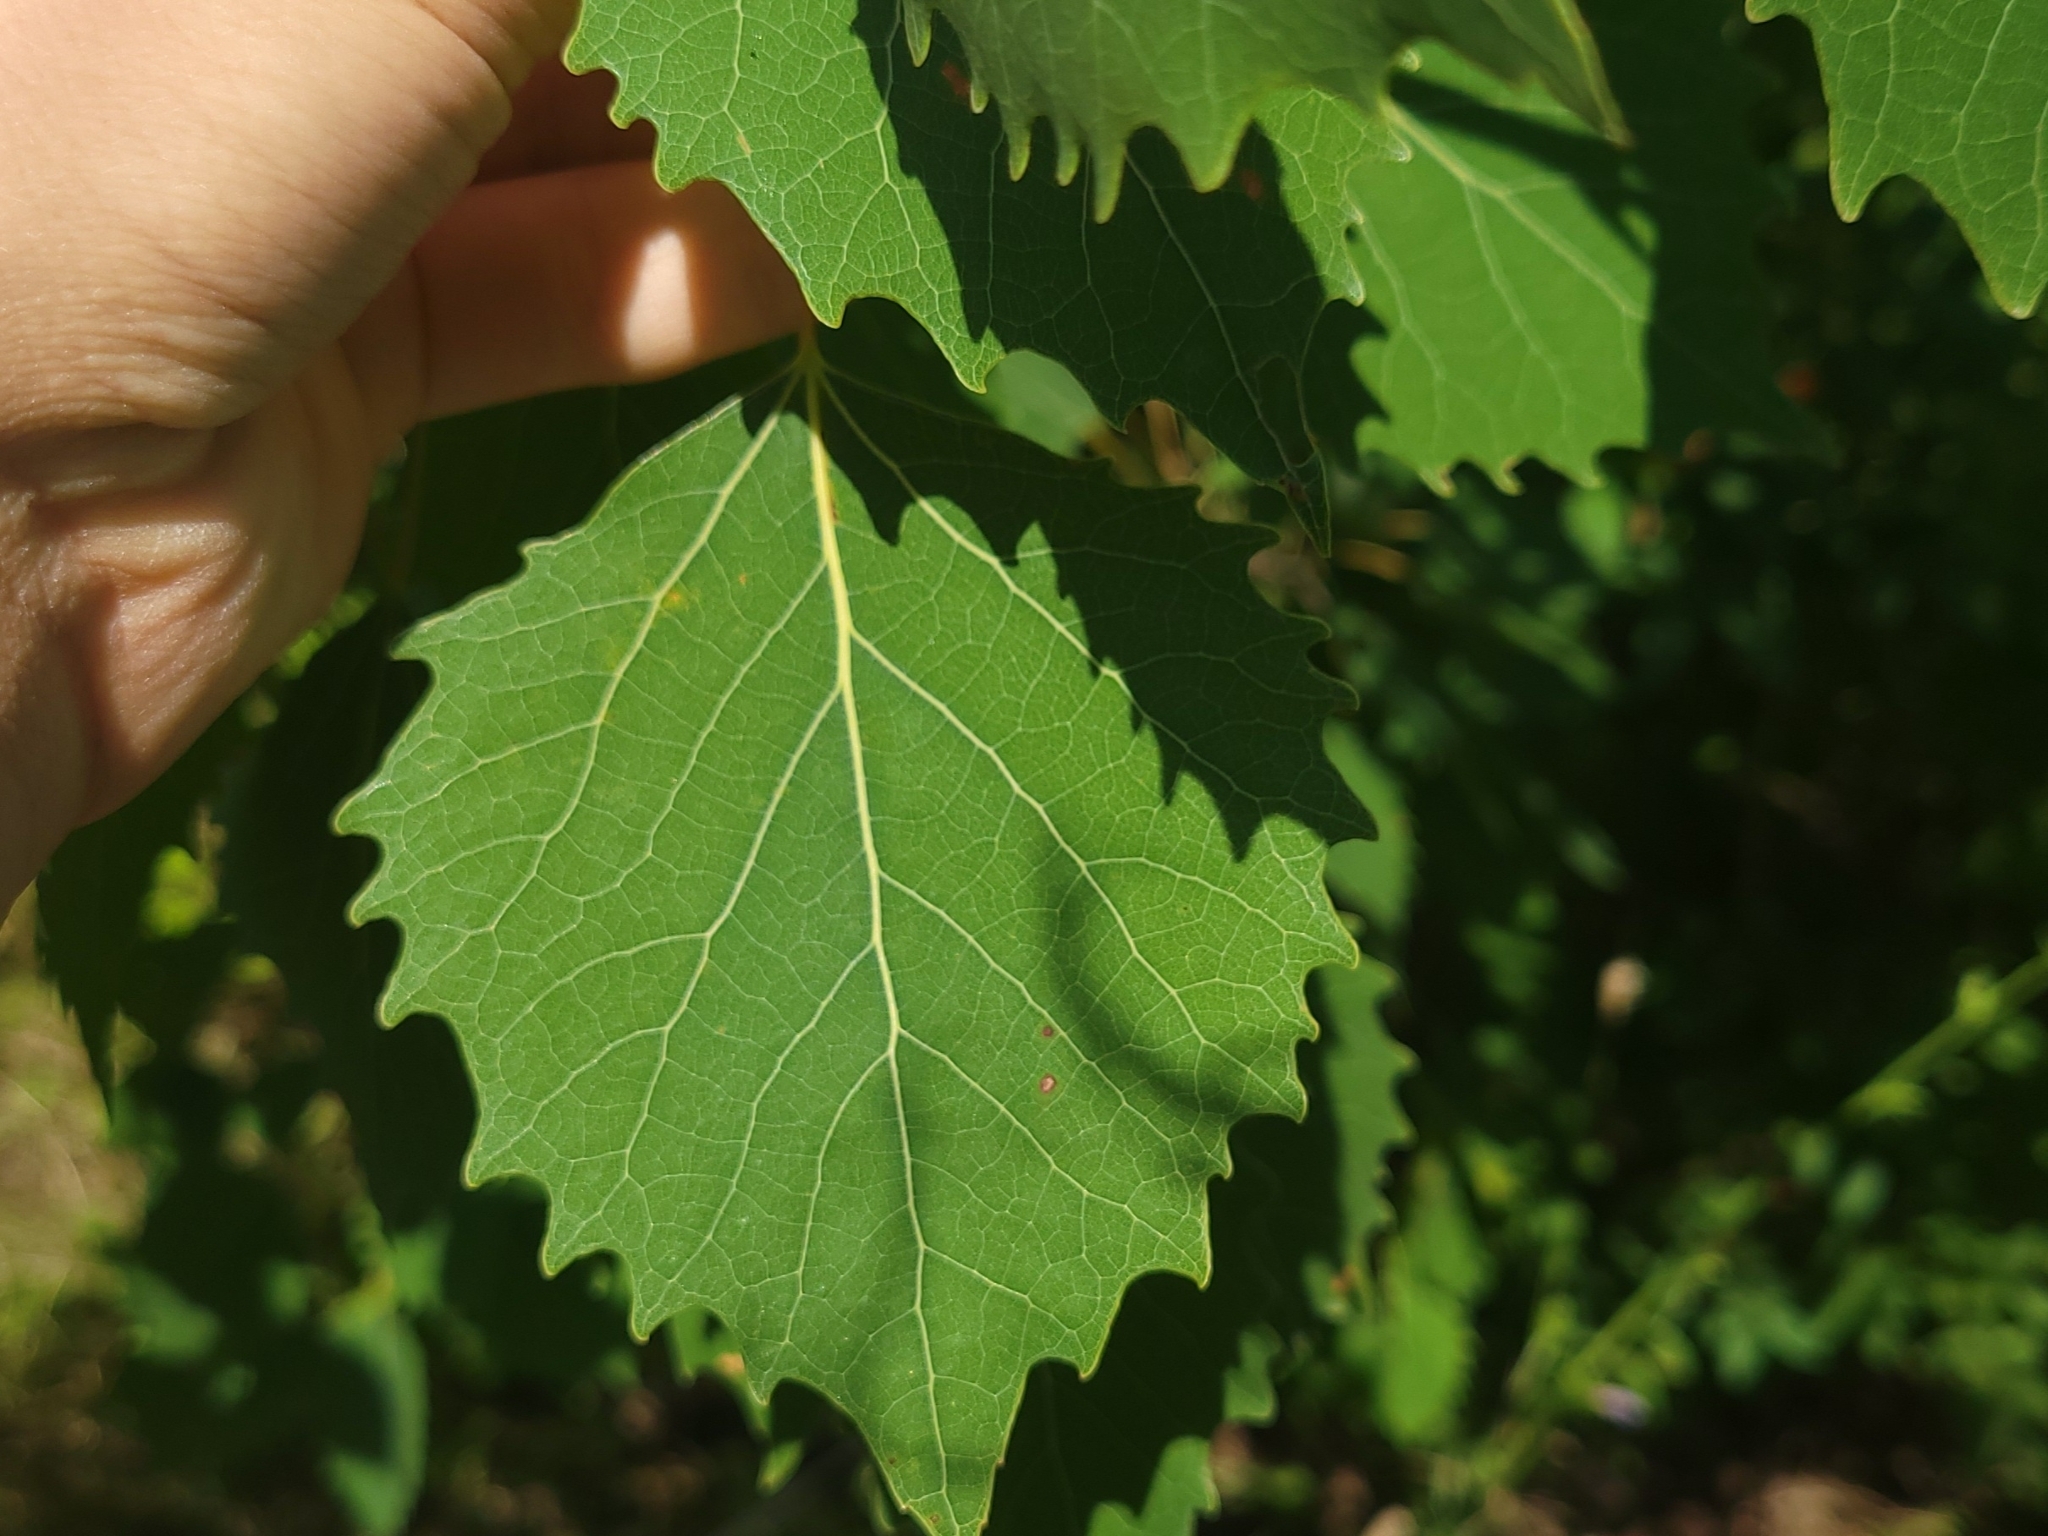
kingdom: Plantae
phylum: Tracheophyta
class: Magnoliopsida
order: Malpighiales
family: Salicaceae
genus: Populus
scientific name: Populus grandidentata
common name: Bigtooth aspen
